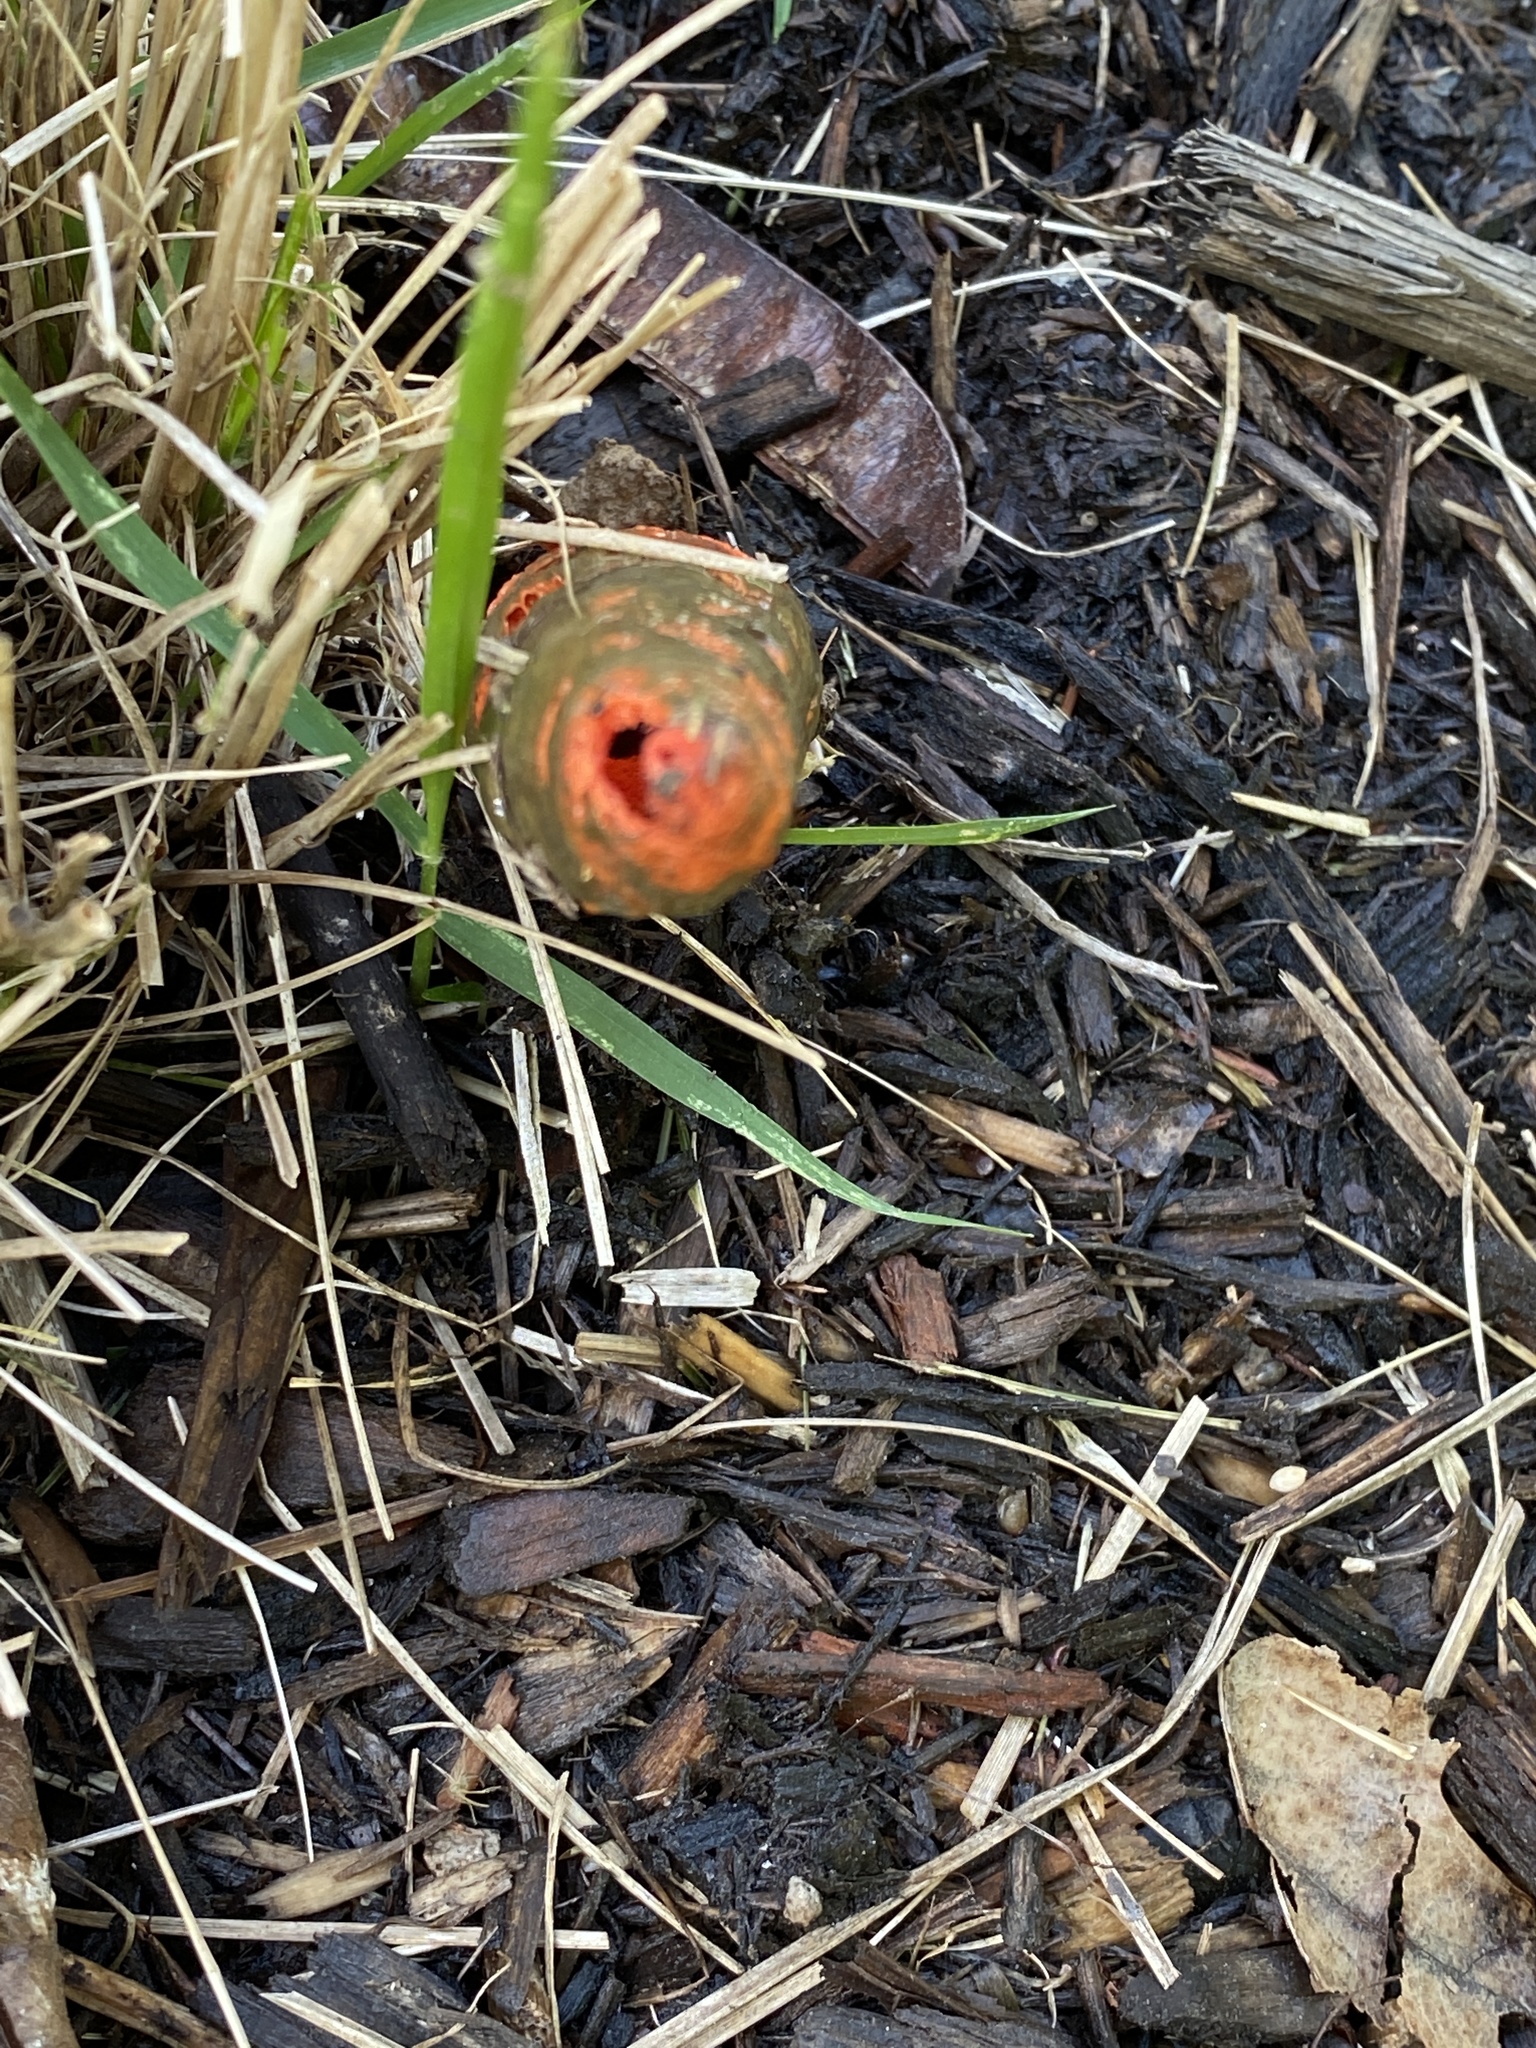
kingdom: Fungi
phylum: Basidiomycota
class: Agaricomycetes
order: Phallales
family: Phallaceae
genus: Mutinus
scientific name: Mutinus elegans
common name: Devil's dipstick
